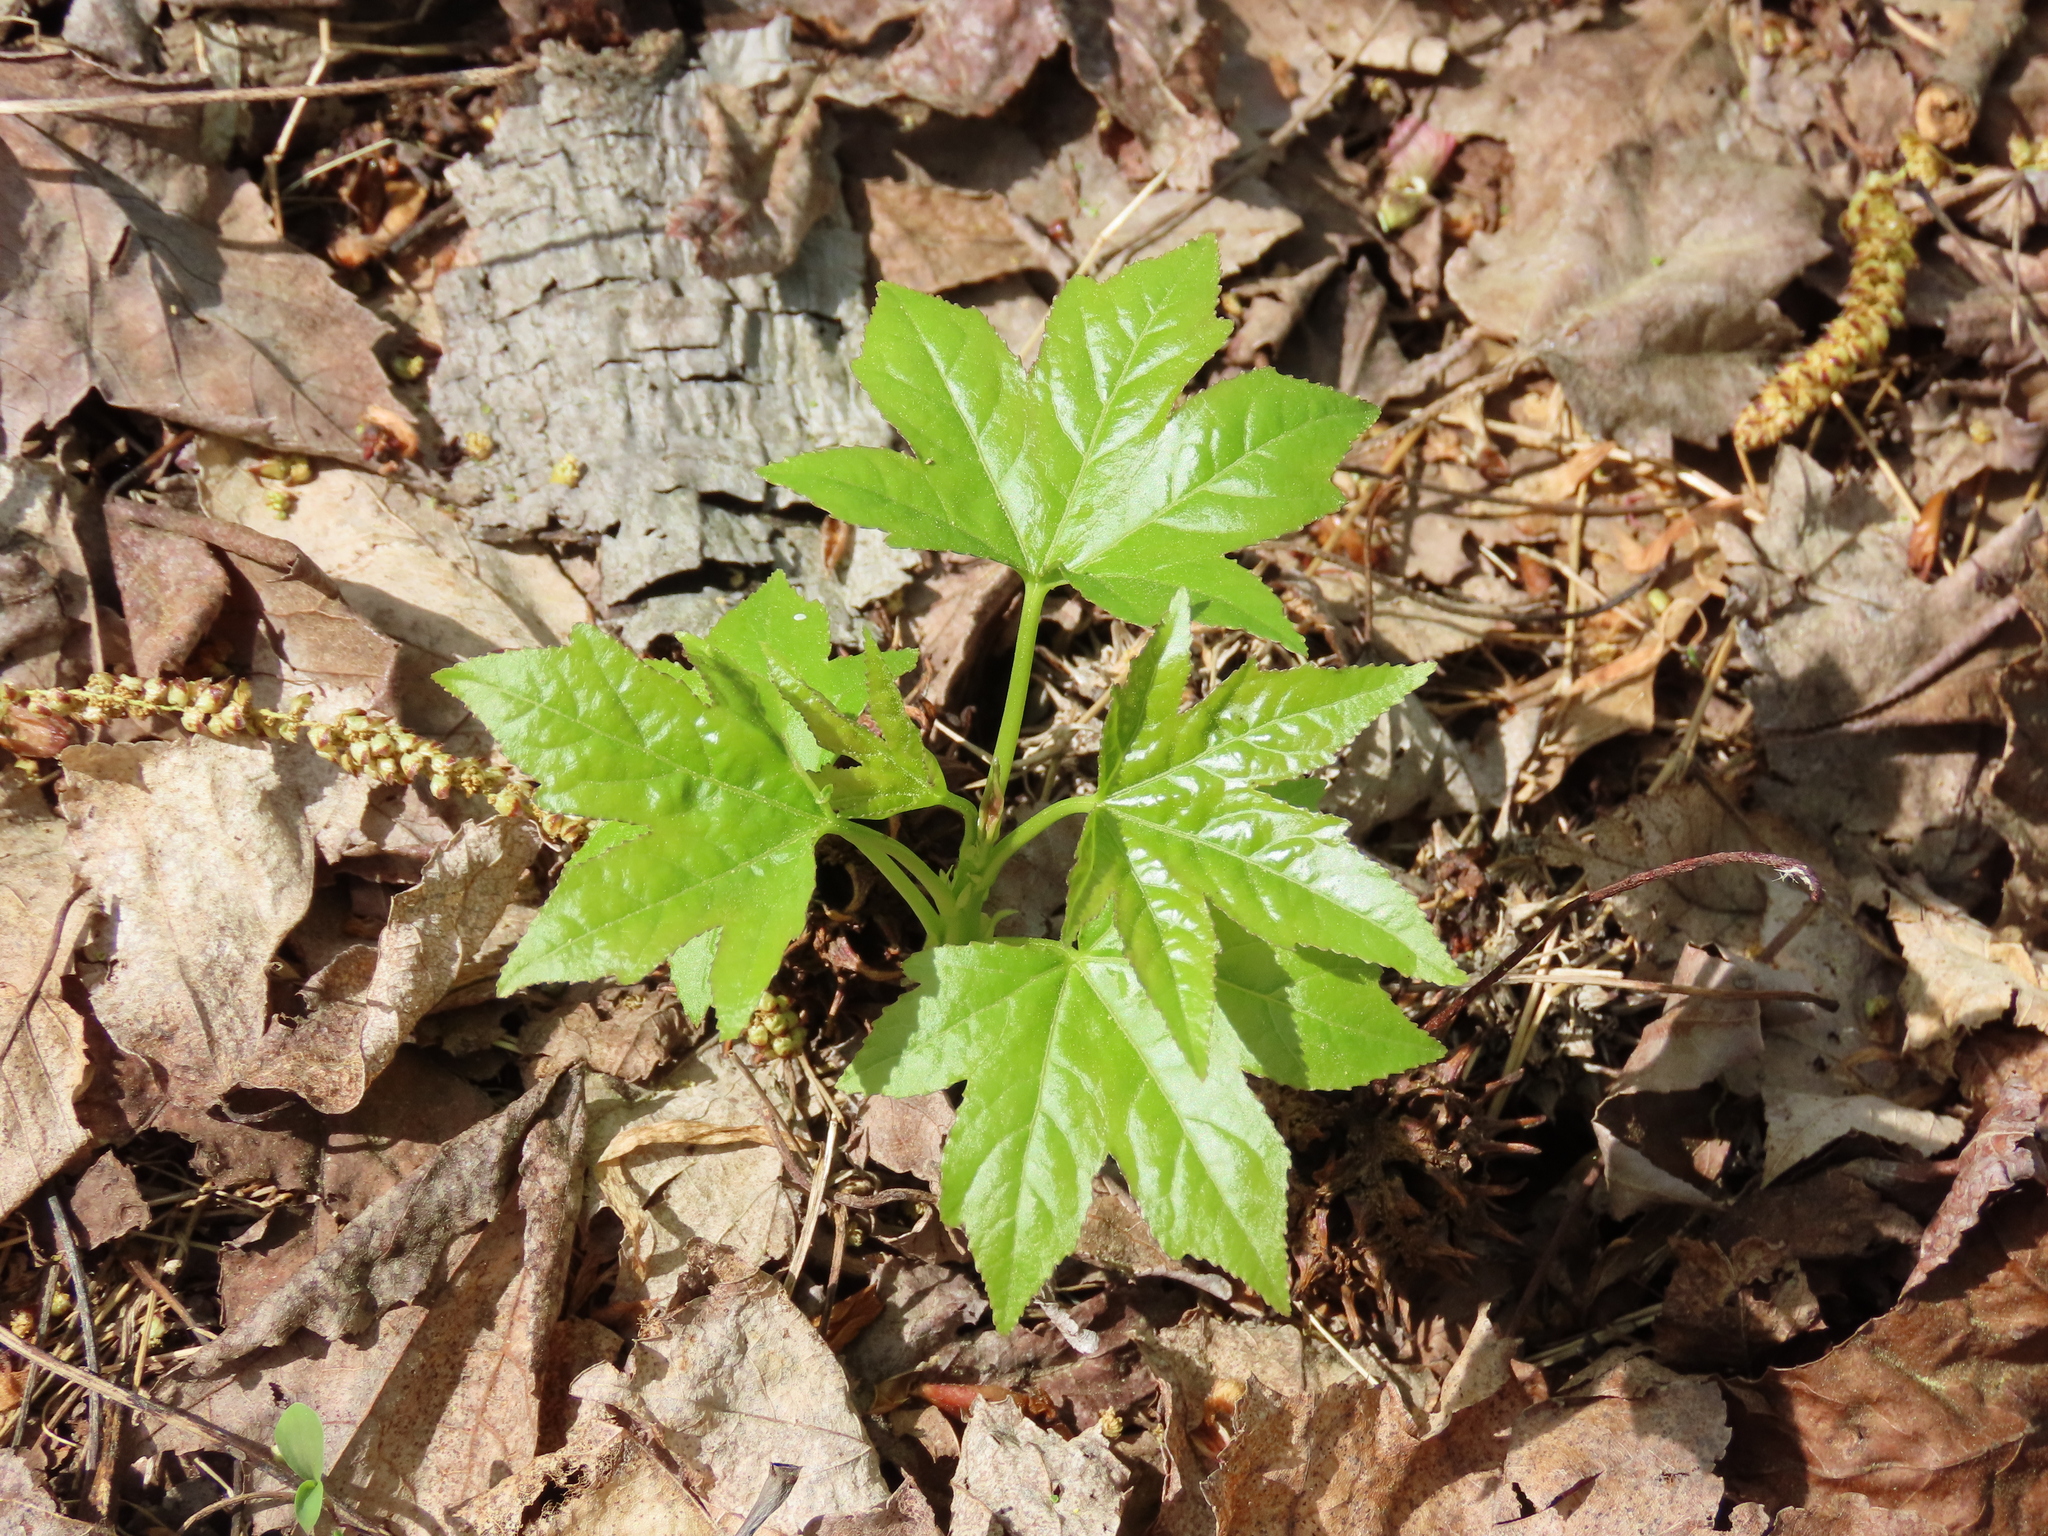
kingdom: Plantae
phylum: Tracheophyta
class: Magnoliopsida
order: Saxifragales
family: Altingiaceae
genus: Liquidambar
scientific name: Liquidambar styraciflua
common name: Sweet gum
